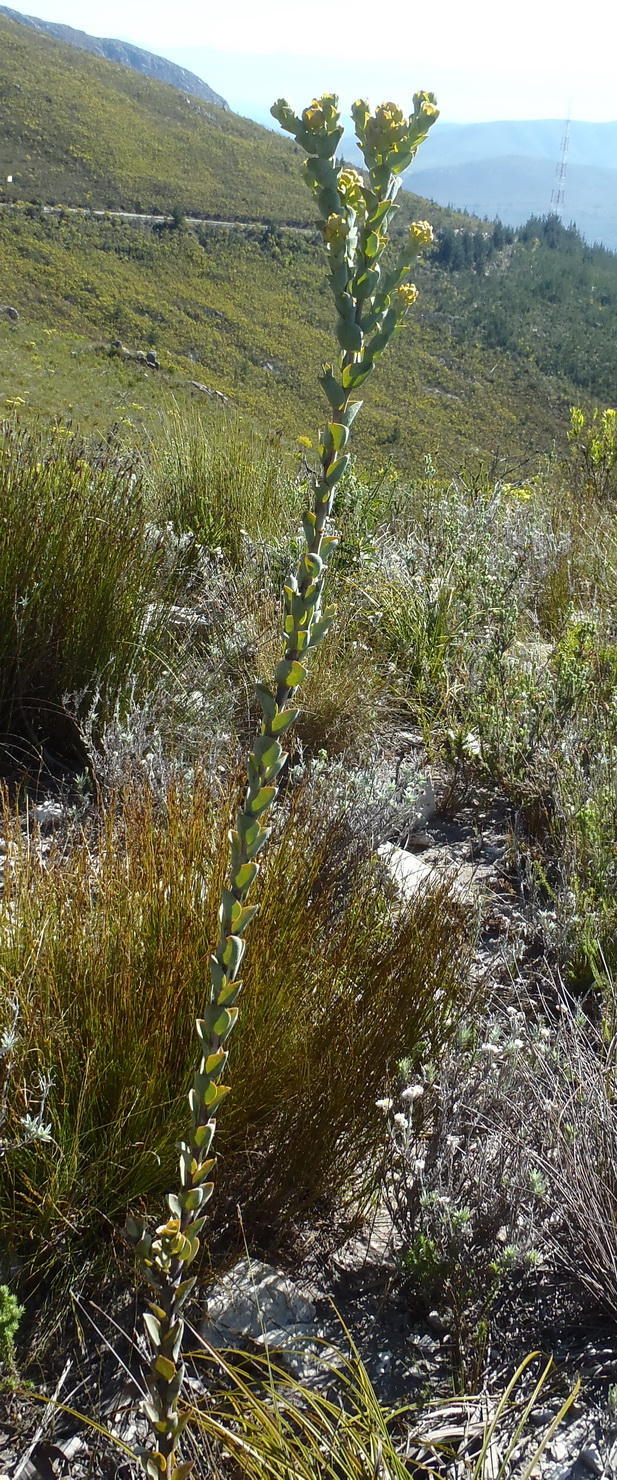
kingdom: Plantae
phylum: Tracheophyta
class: Magnoliopsida
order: Santalales
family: Thesiaceae
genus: Thesium
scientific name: Thesium euphorbioides
